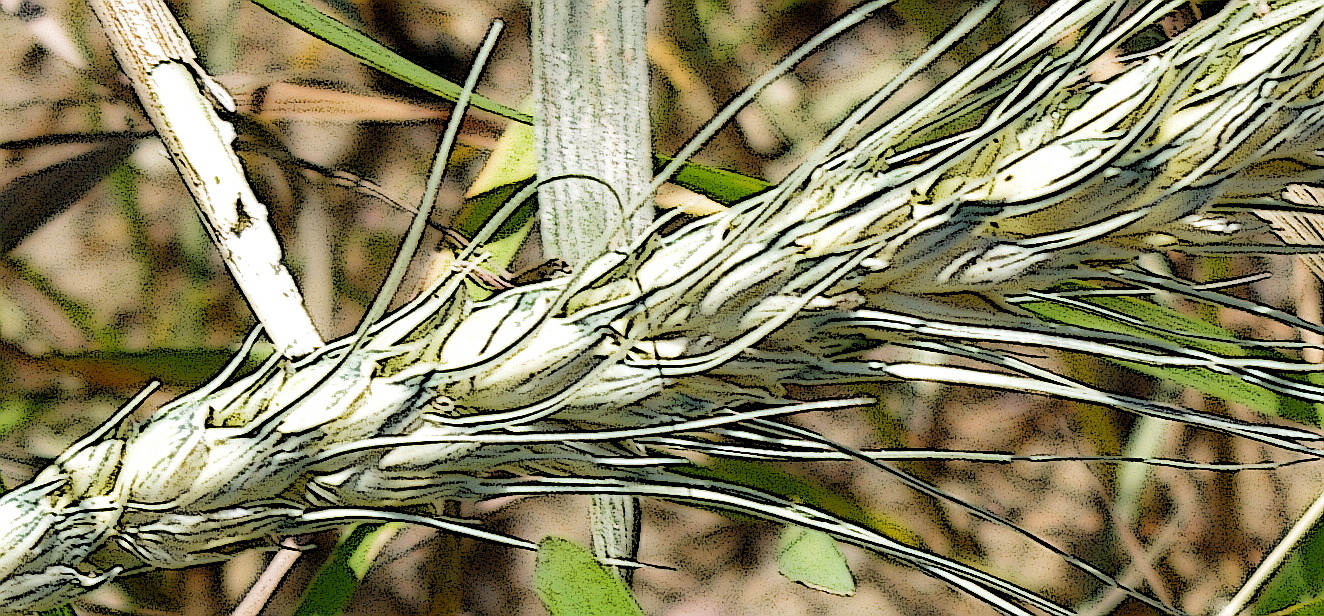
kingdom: Plantae
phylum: Tracheophyta
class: Liliopsida
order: Poales
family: Poaceae
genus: Triticum
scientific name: Triticum aestivum
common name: Common wheat
